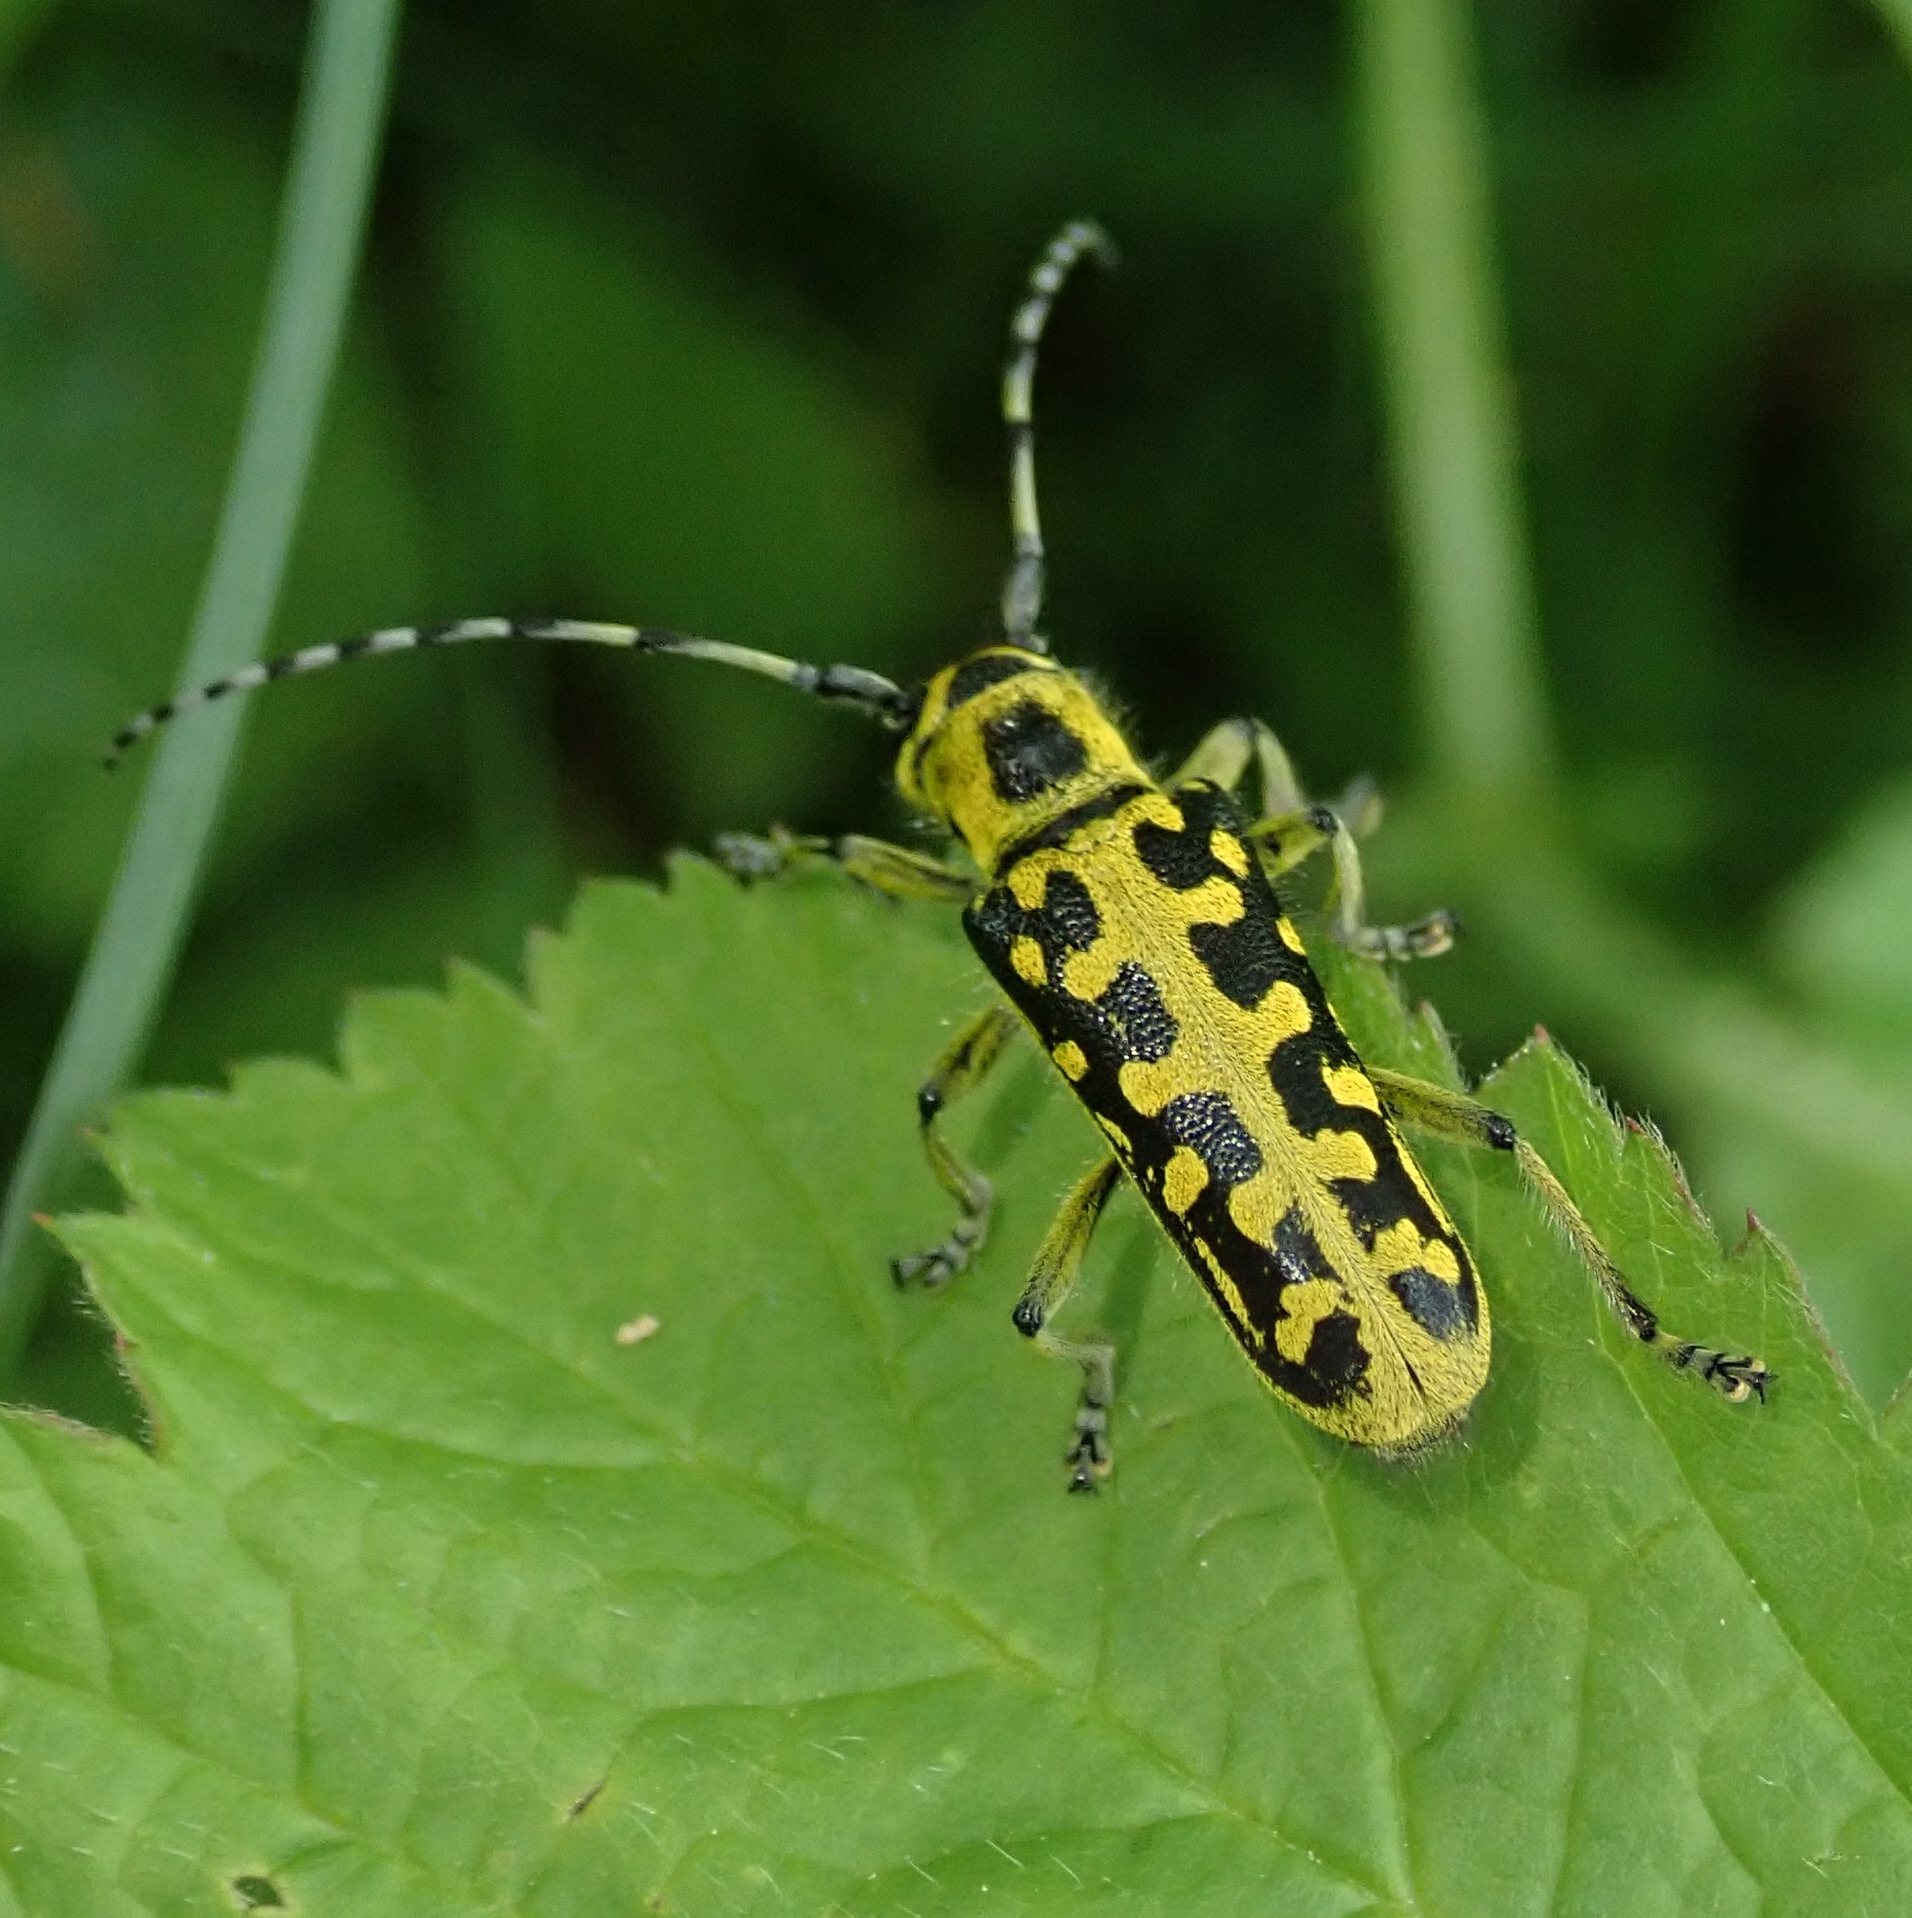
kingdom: Animalia
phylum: Arthropoda
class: Insecta
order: Coleoptera
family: Cerambycidae
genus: Saperda
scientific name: Saperda scalaris
